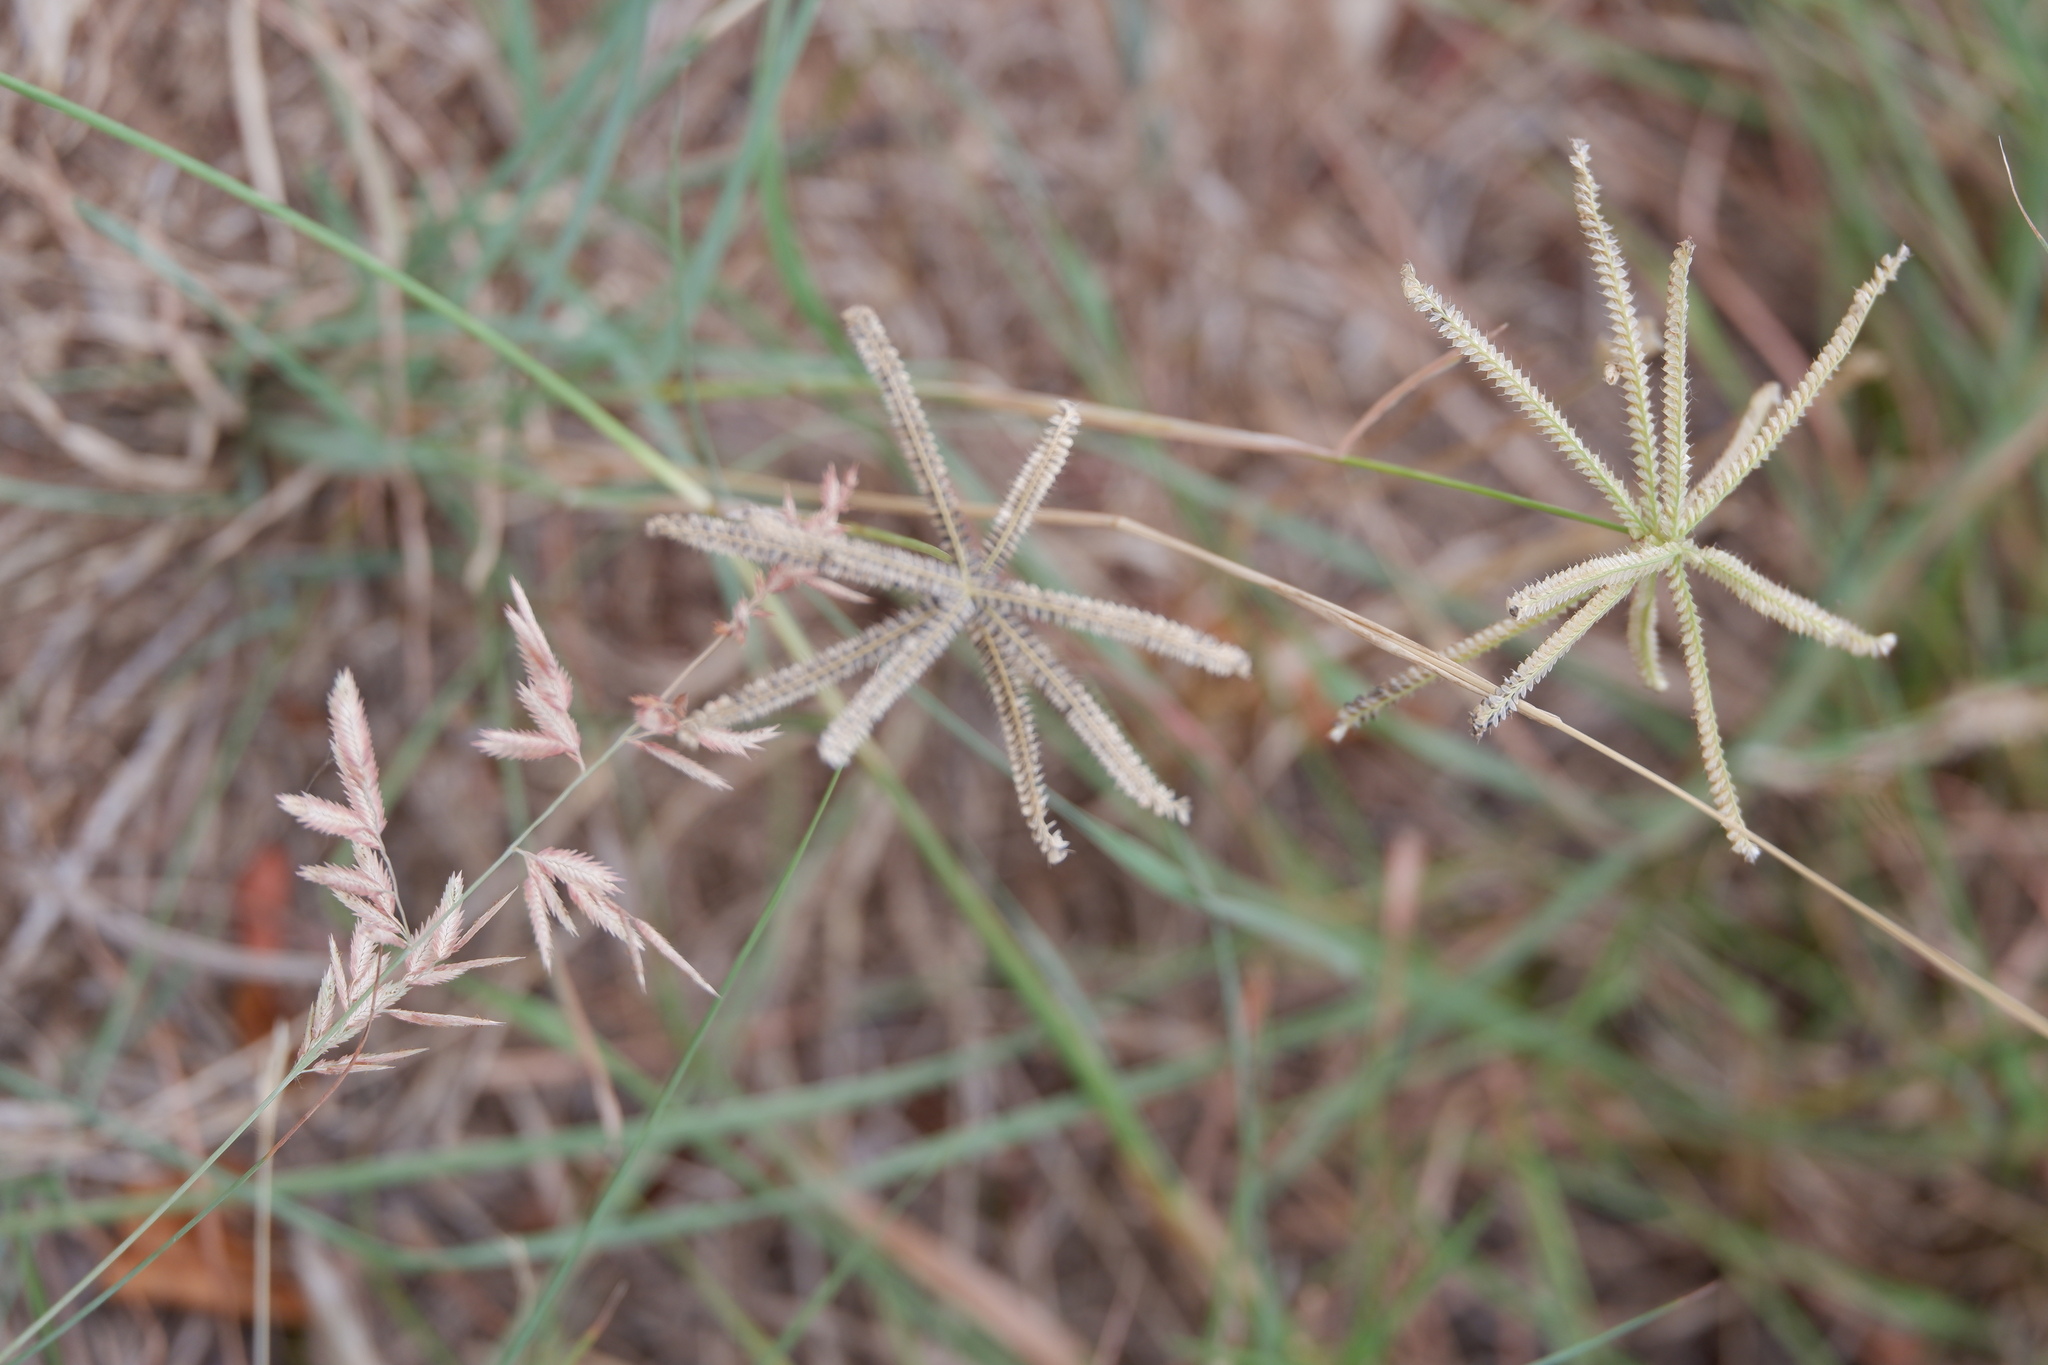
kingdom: Plantae
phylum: Tracheophyta
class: Liliopsida
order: Poales
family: Poaceae
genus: Chloris
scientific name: Chloris cucullata
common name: Hooded windmill grass
